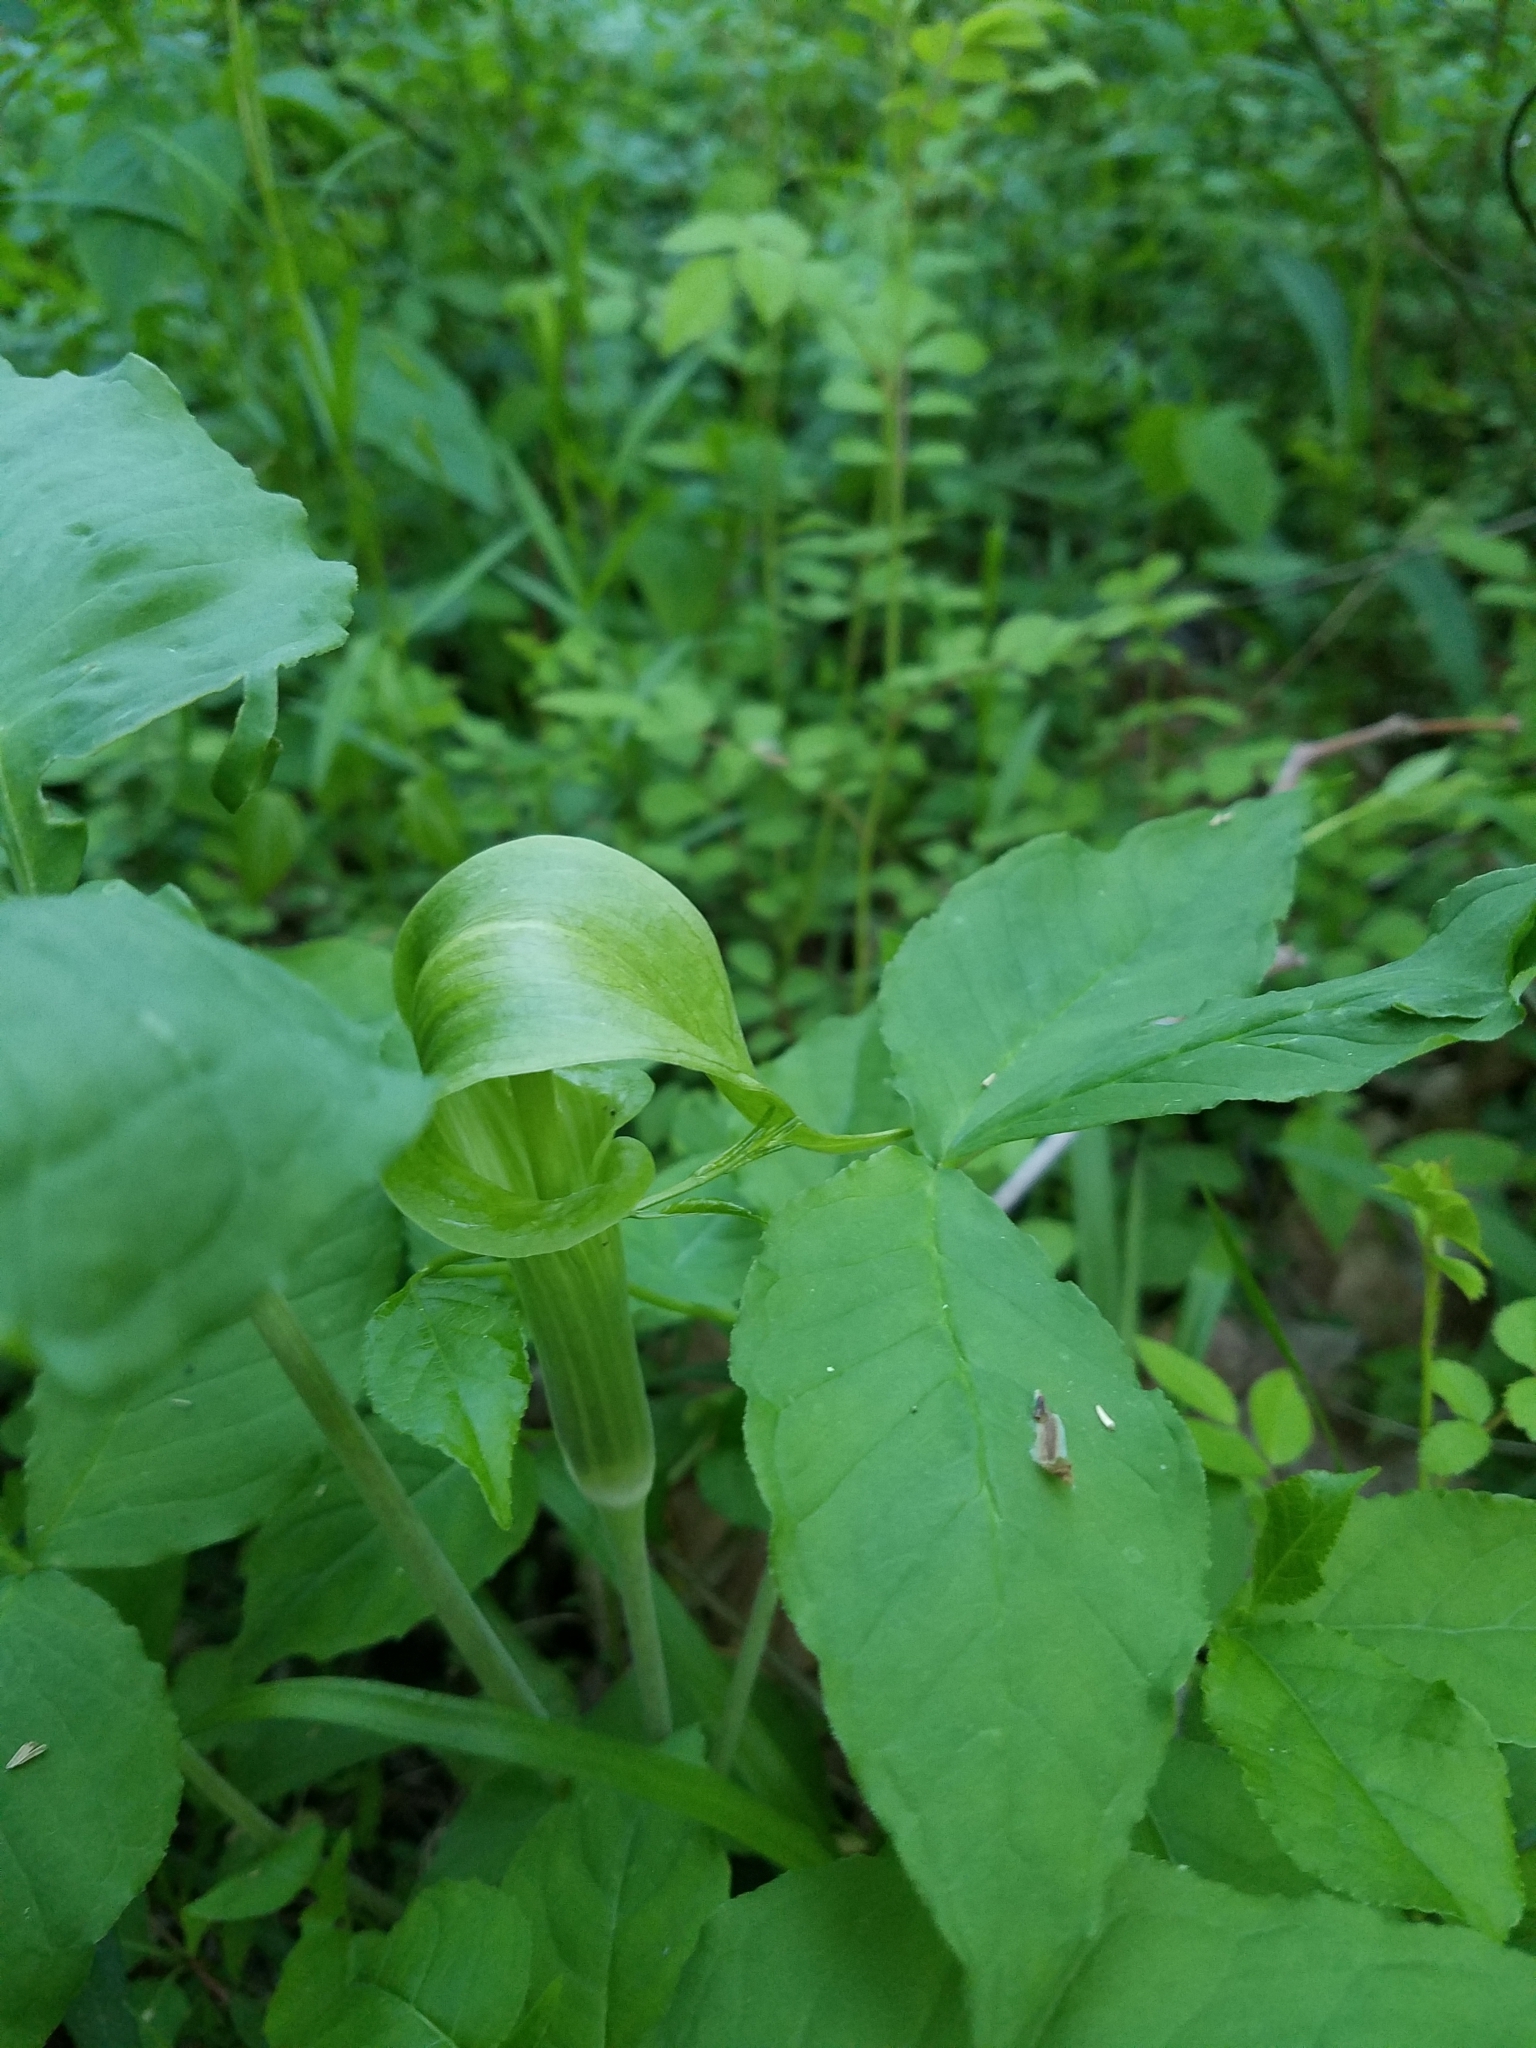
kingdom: Plantae
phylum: Tracheophyta
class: Liliopsida
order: Alismatales
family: Araceae
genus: Arisaema
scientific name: Arisaema triphyllum
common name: Jack-in-the-pulpit
